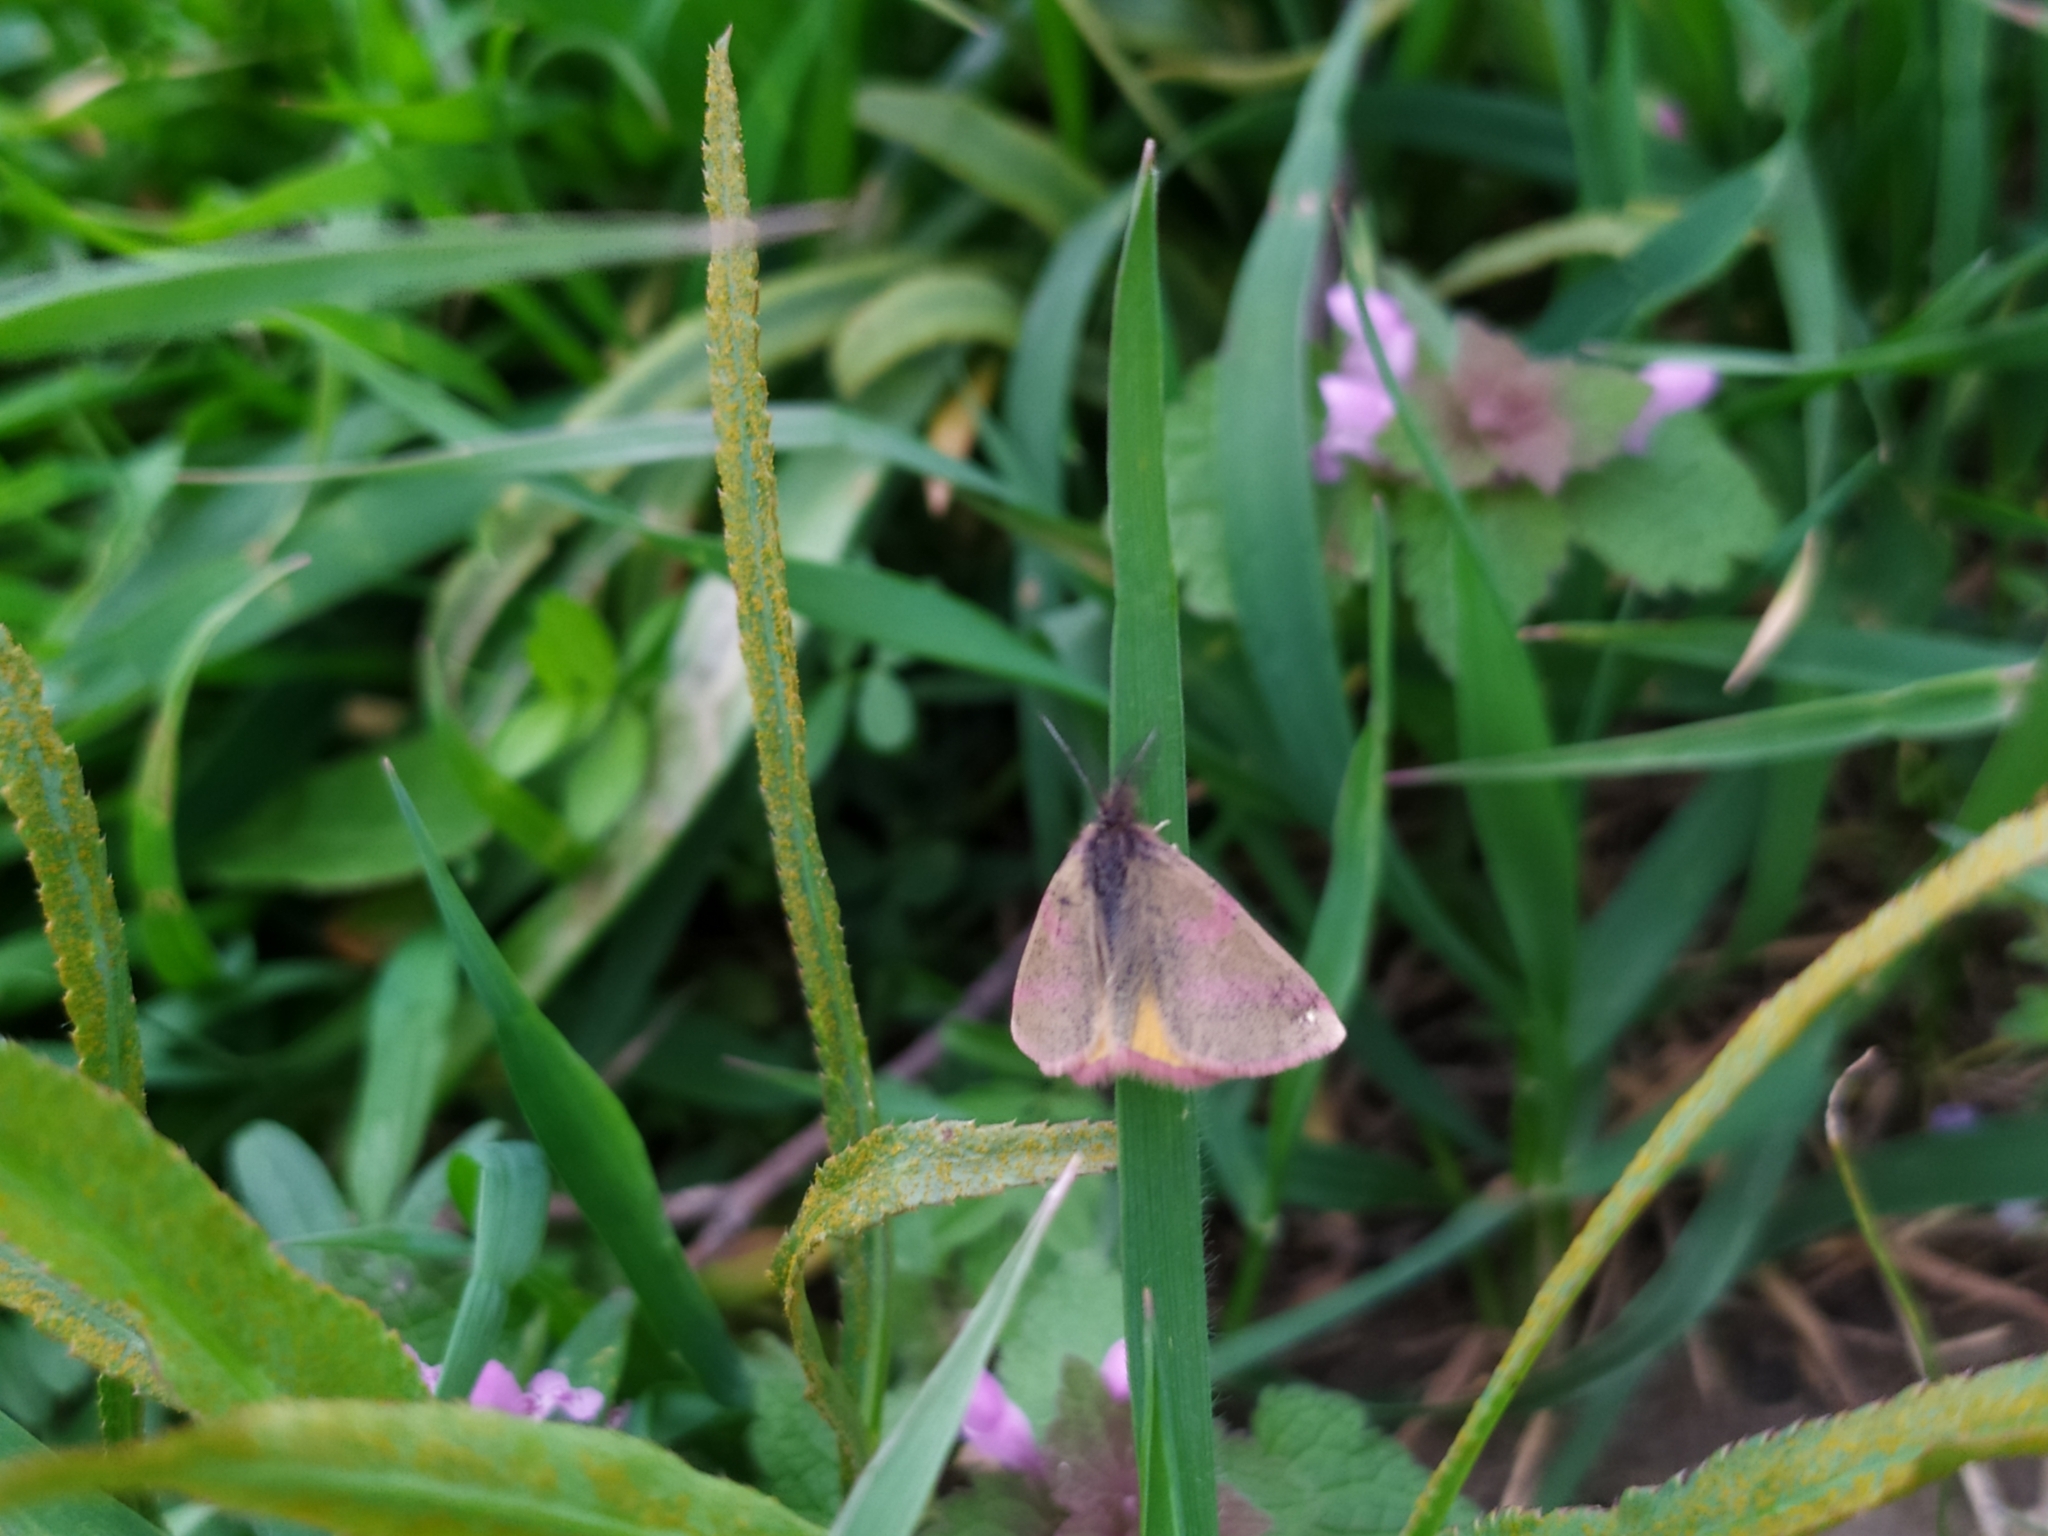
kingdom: Animalia
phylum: Arthropoda
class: Insecta
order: Lepidoptera
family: Geometridae
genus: Lythria
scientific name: Lythria purpuraria
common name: Purple-barred yellow
